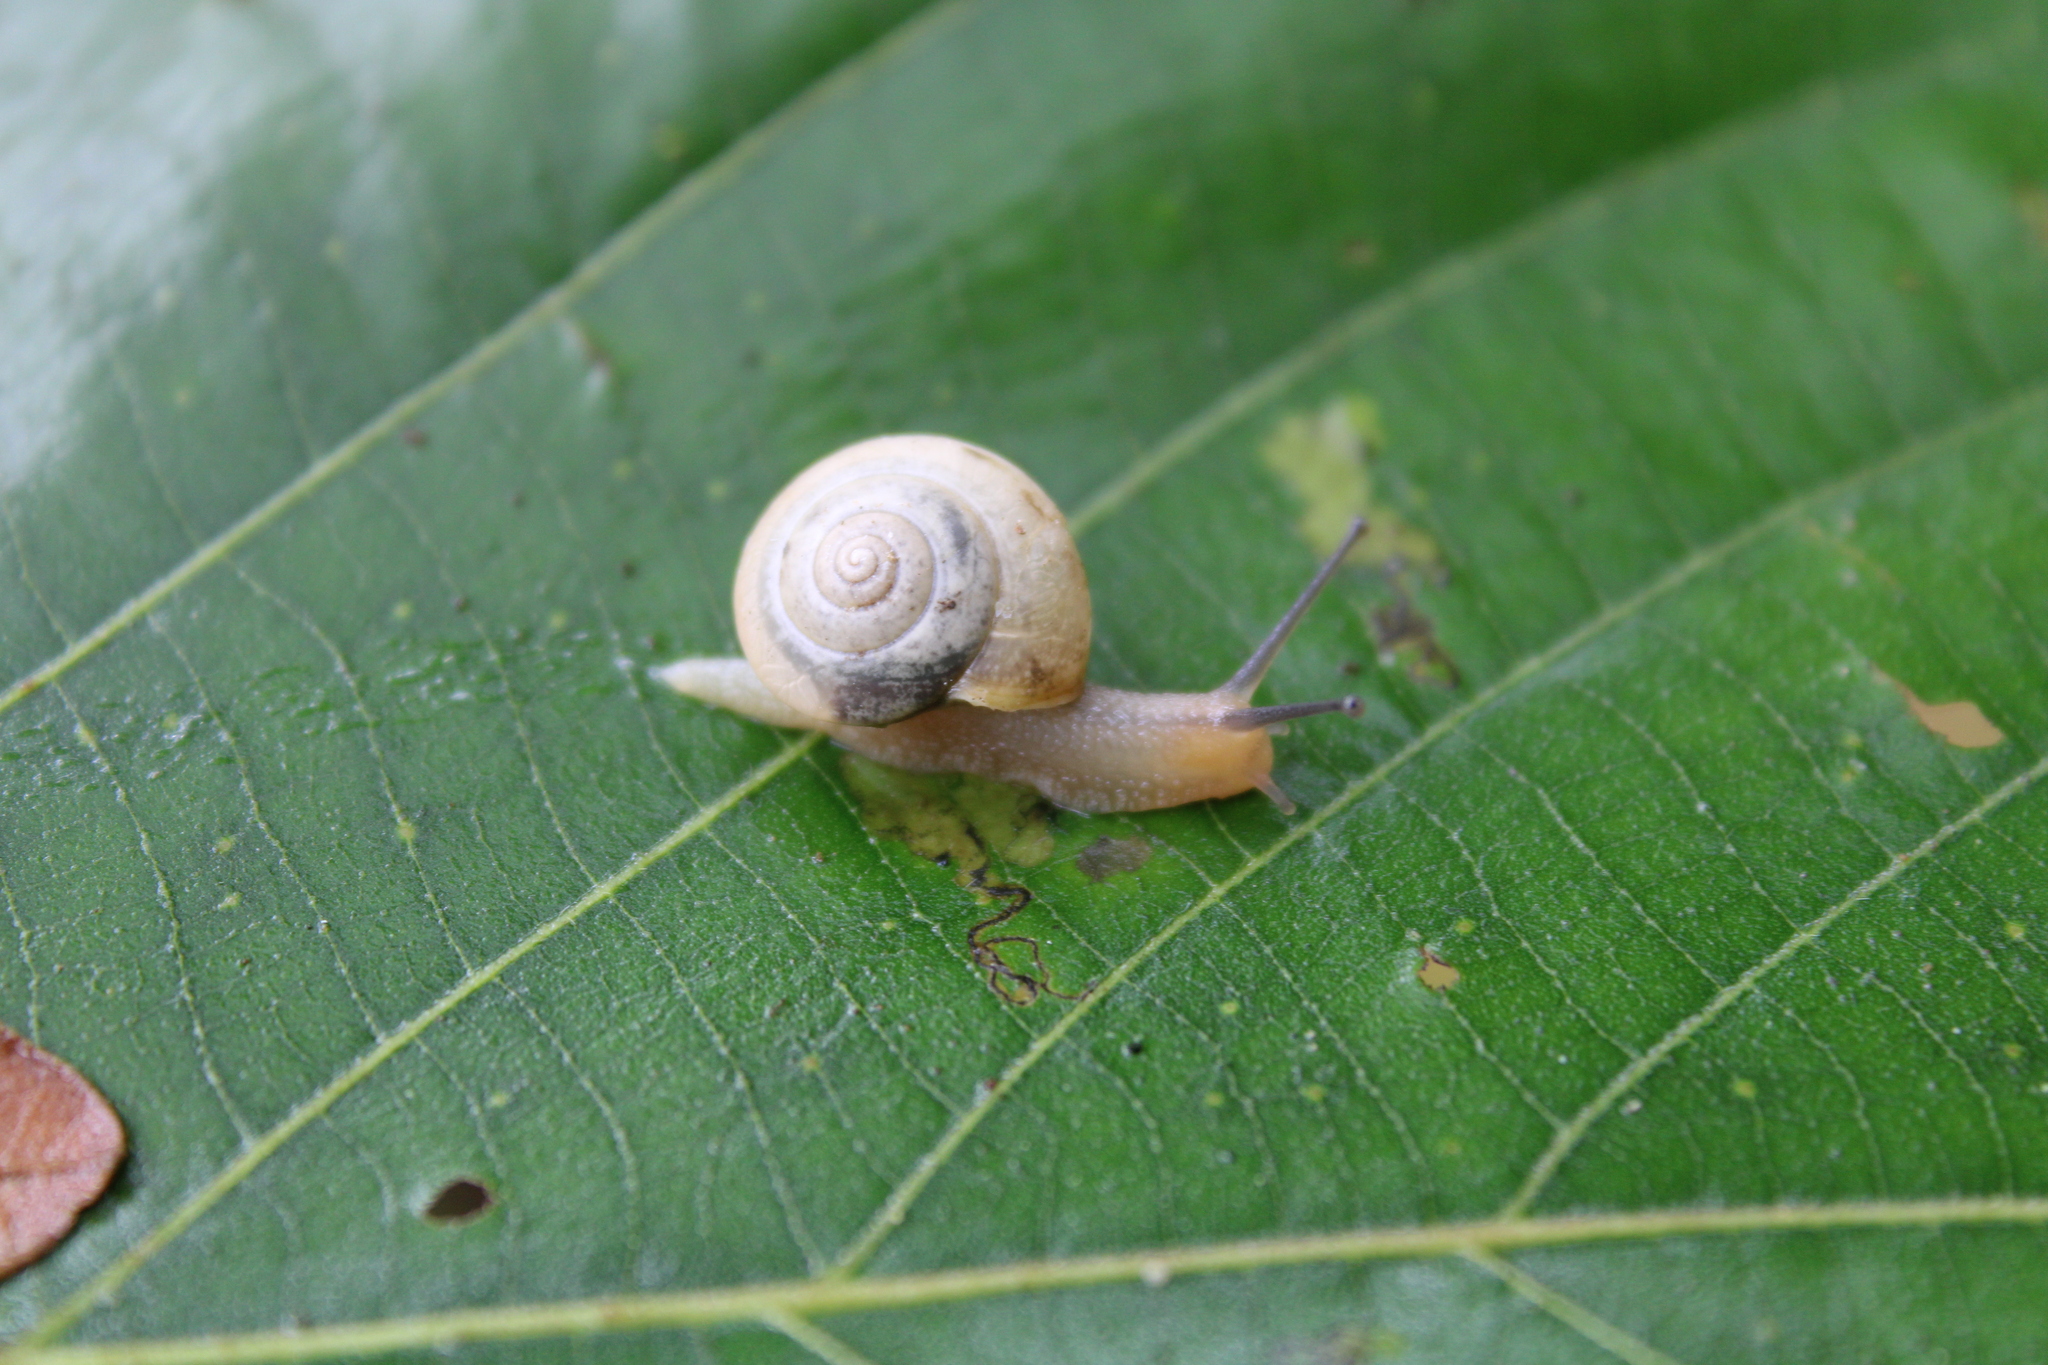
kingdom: Animalia
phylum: Mollusca
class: Gastropoda
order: Stylommatophora
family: Camaenidae
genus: Bradybaena
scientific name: Bradybaena similaris
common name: Asian trampsnail
